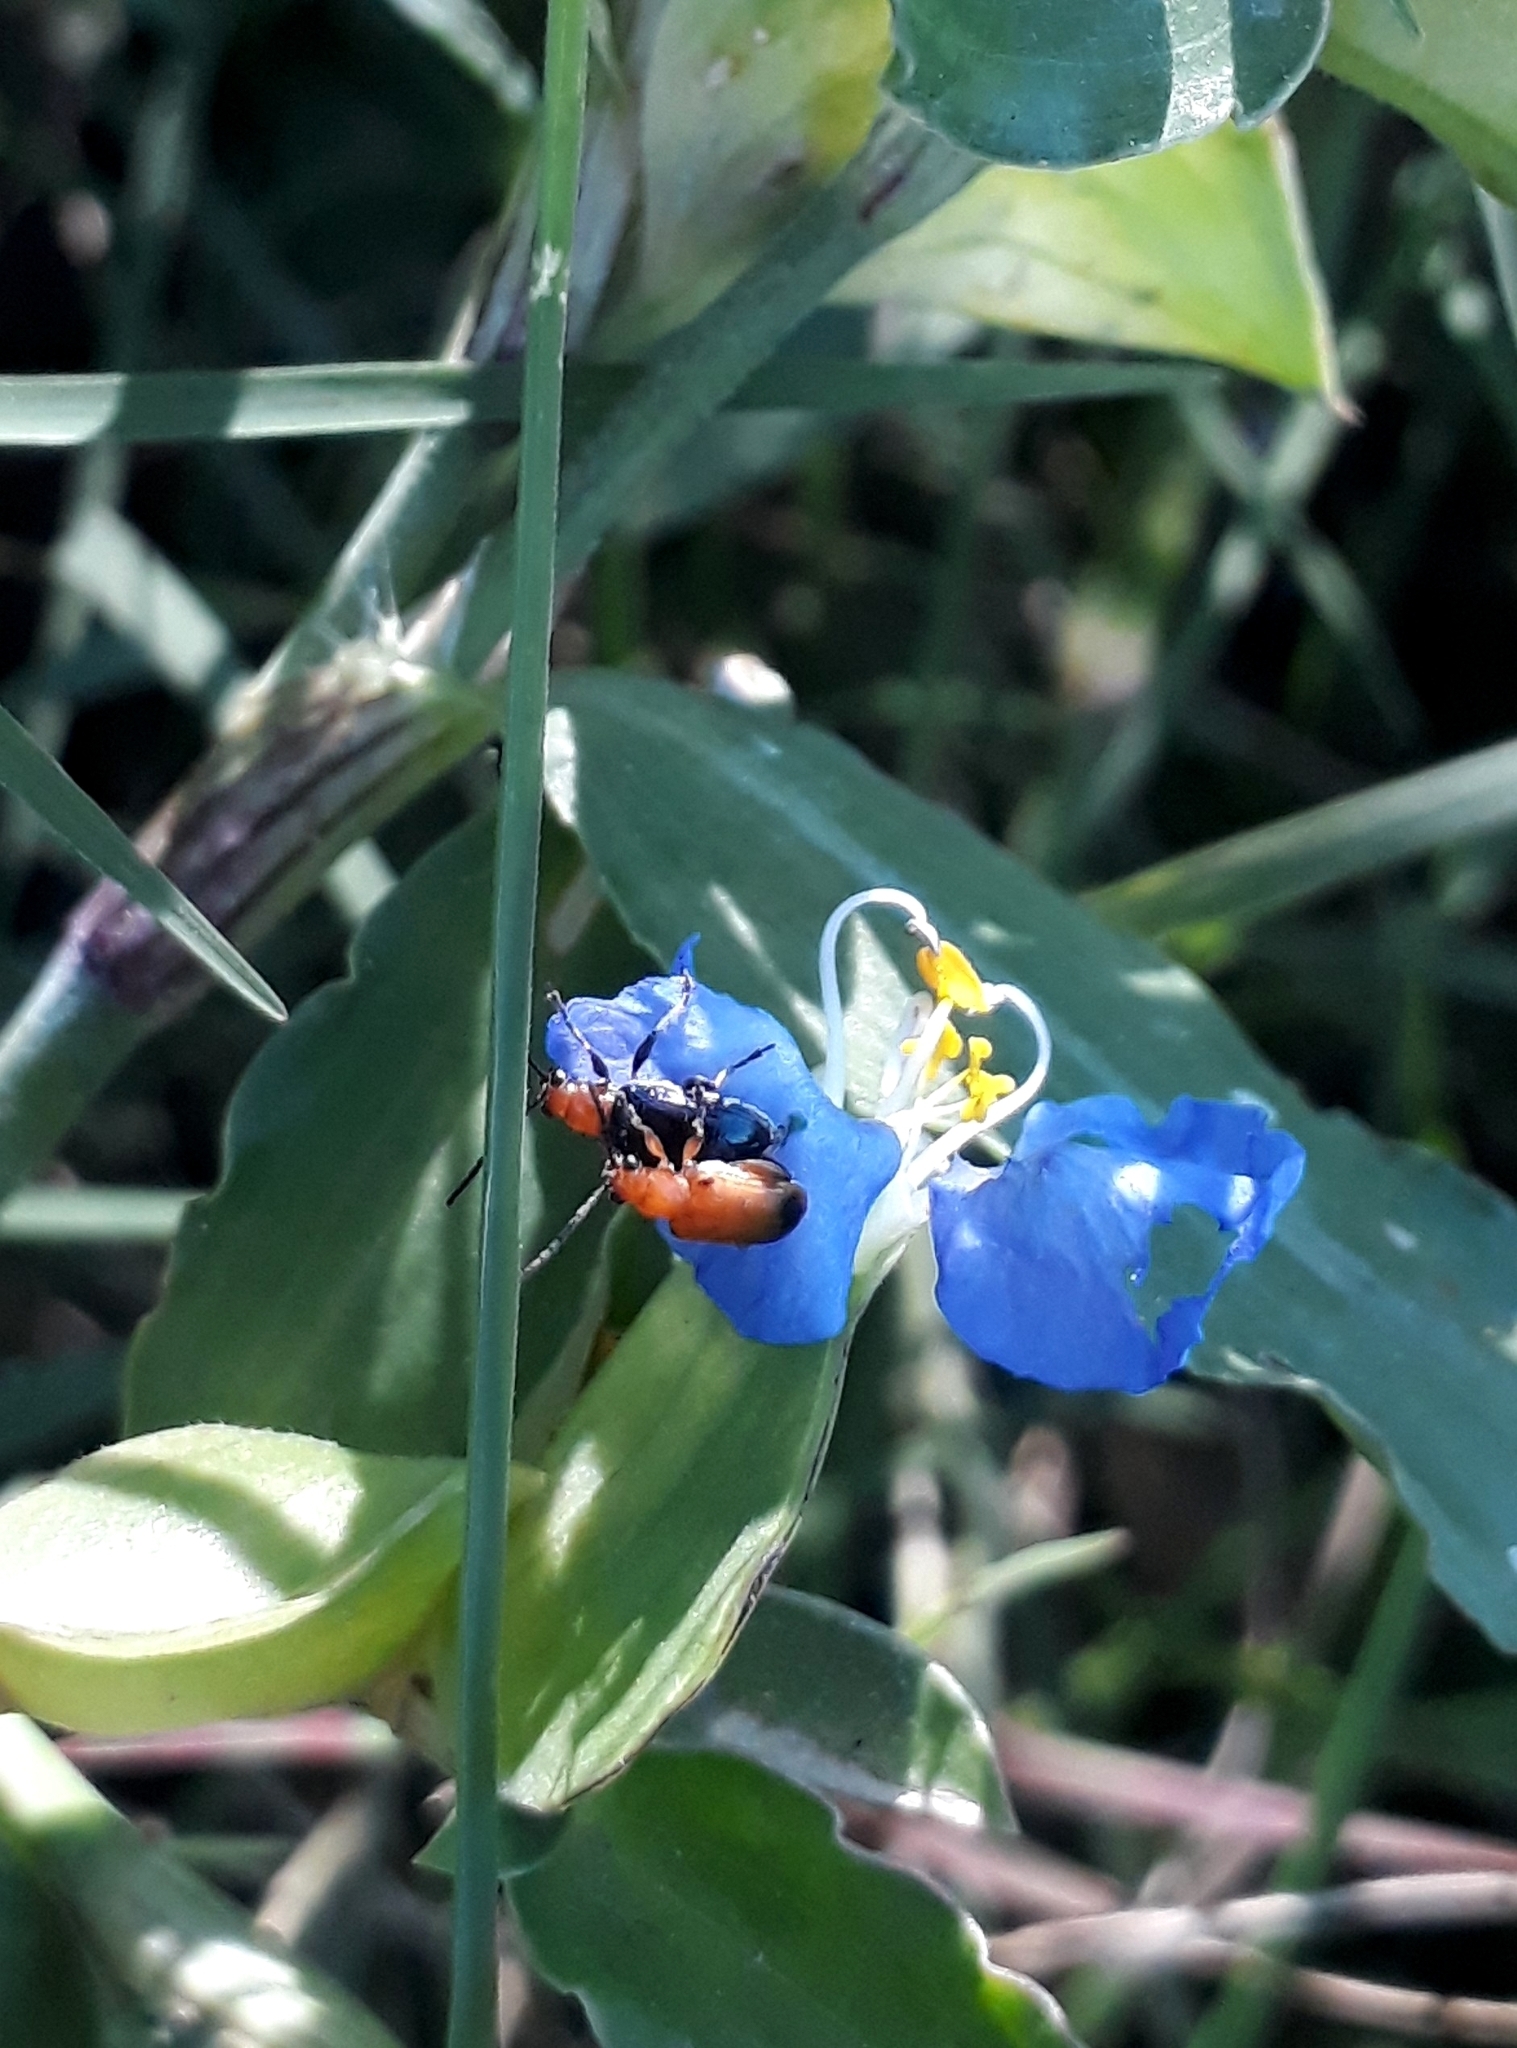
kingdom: Animalia
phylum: Arthropoda
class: Insecta
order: Coleoptera
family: Chrysomelidae
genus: Neolema
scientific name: Neolema dorsalis
